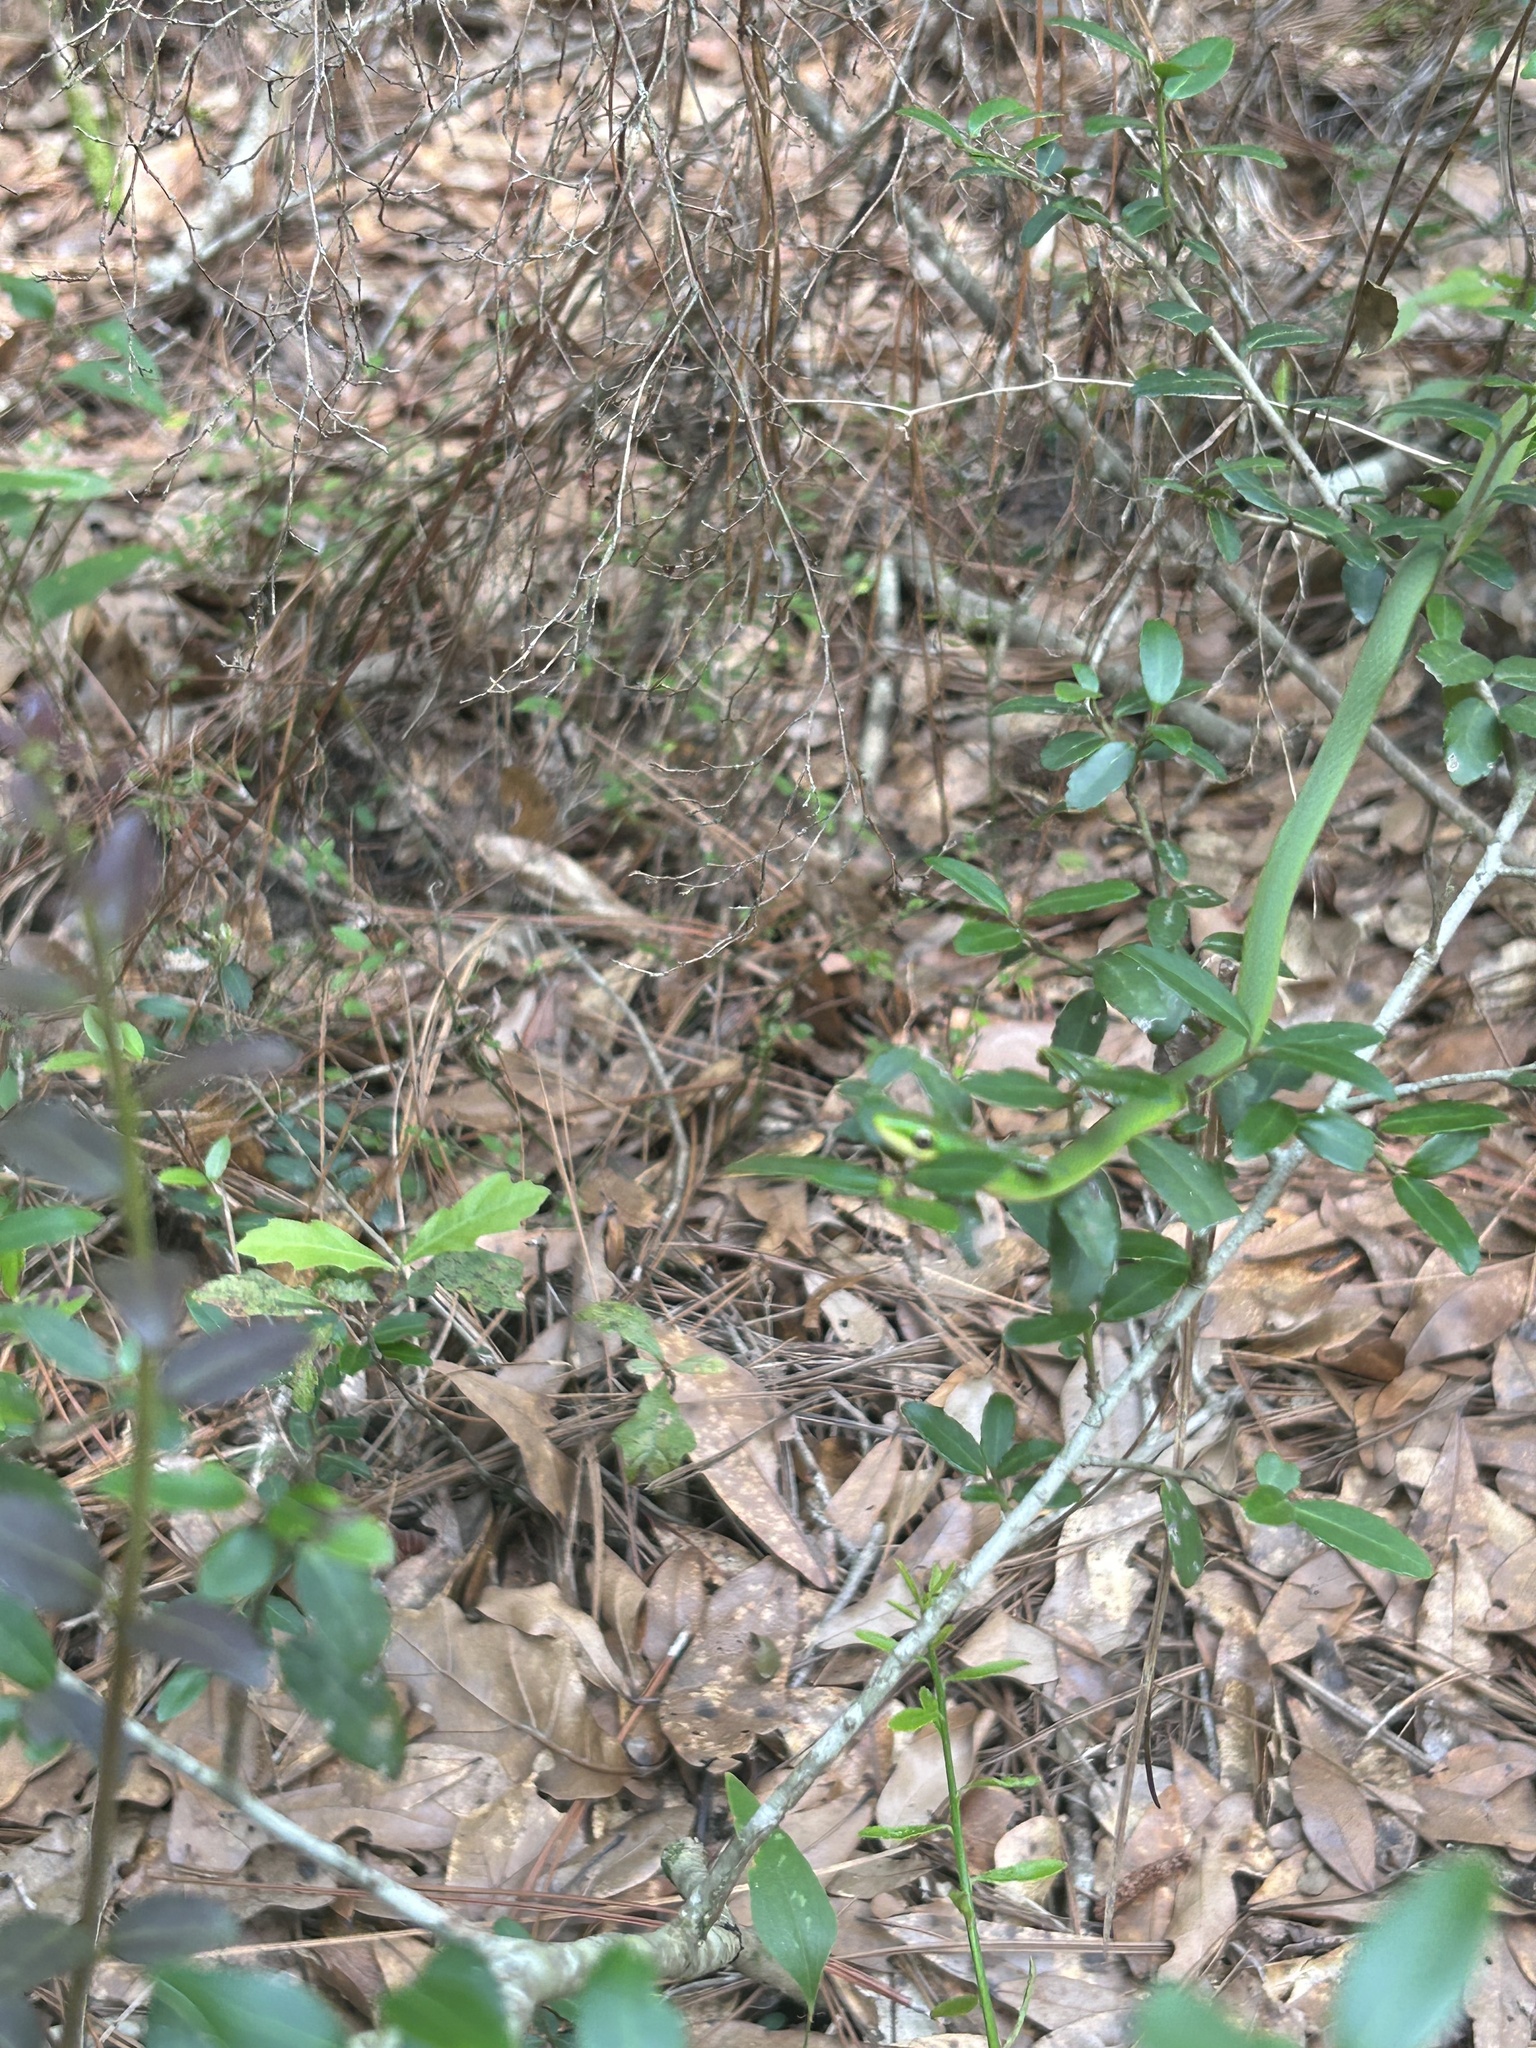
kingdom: Animalia
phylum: Chordata
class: Squamata
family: Colubridae
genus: Opheodrys
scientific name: Opheodrys aestivus
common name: Rough greensnake
